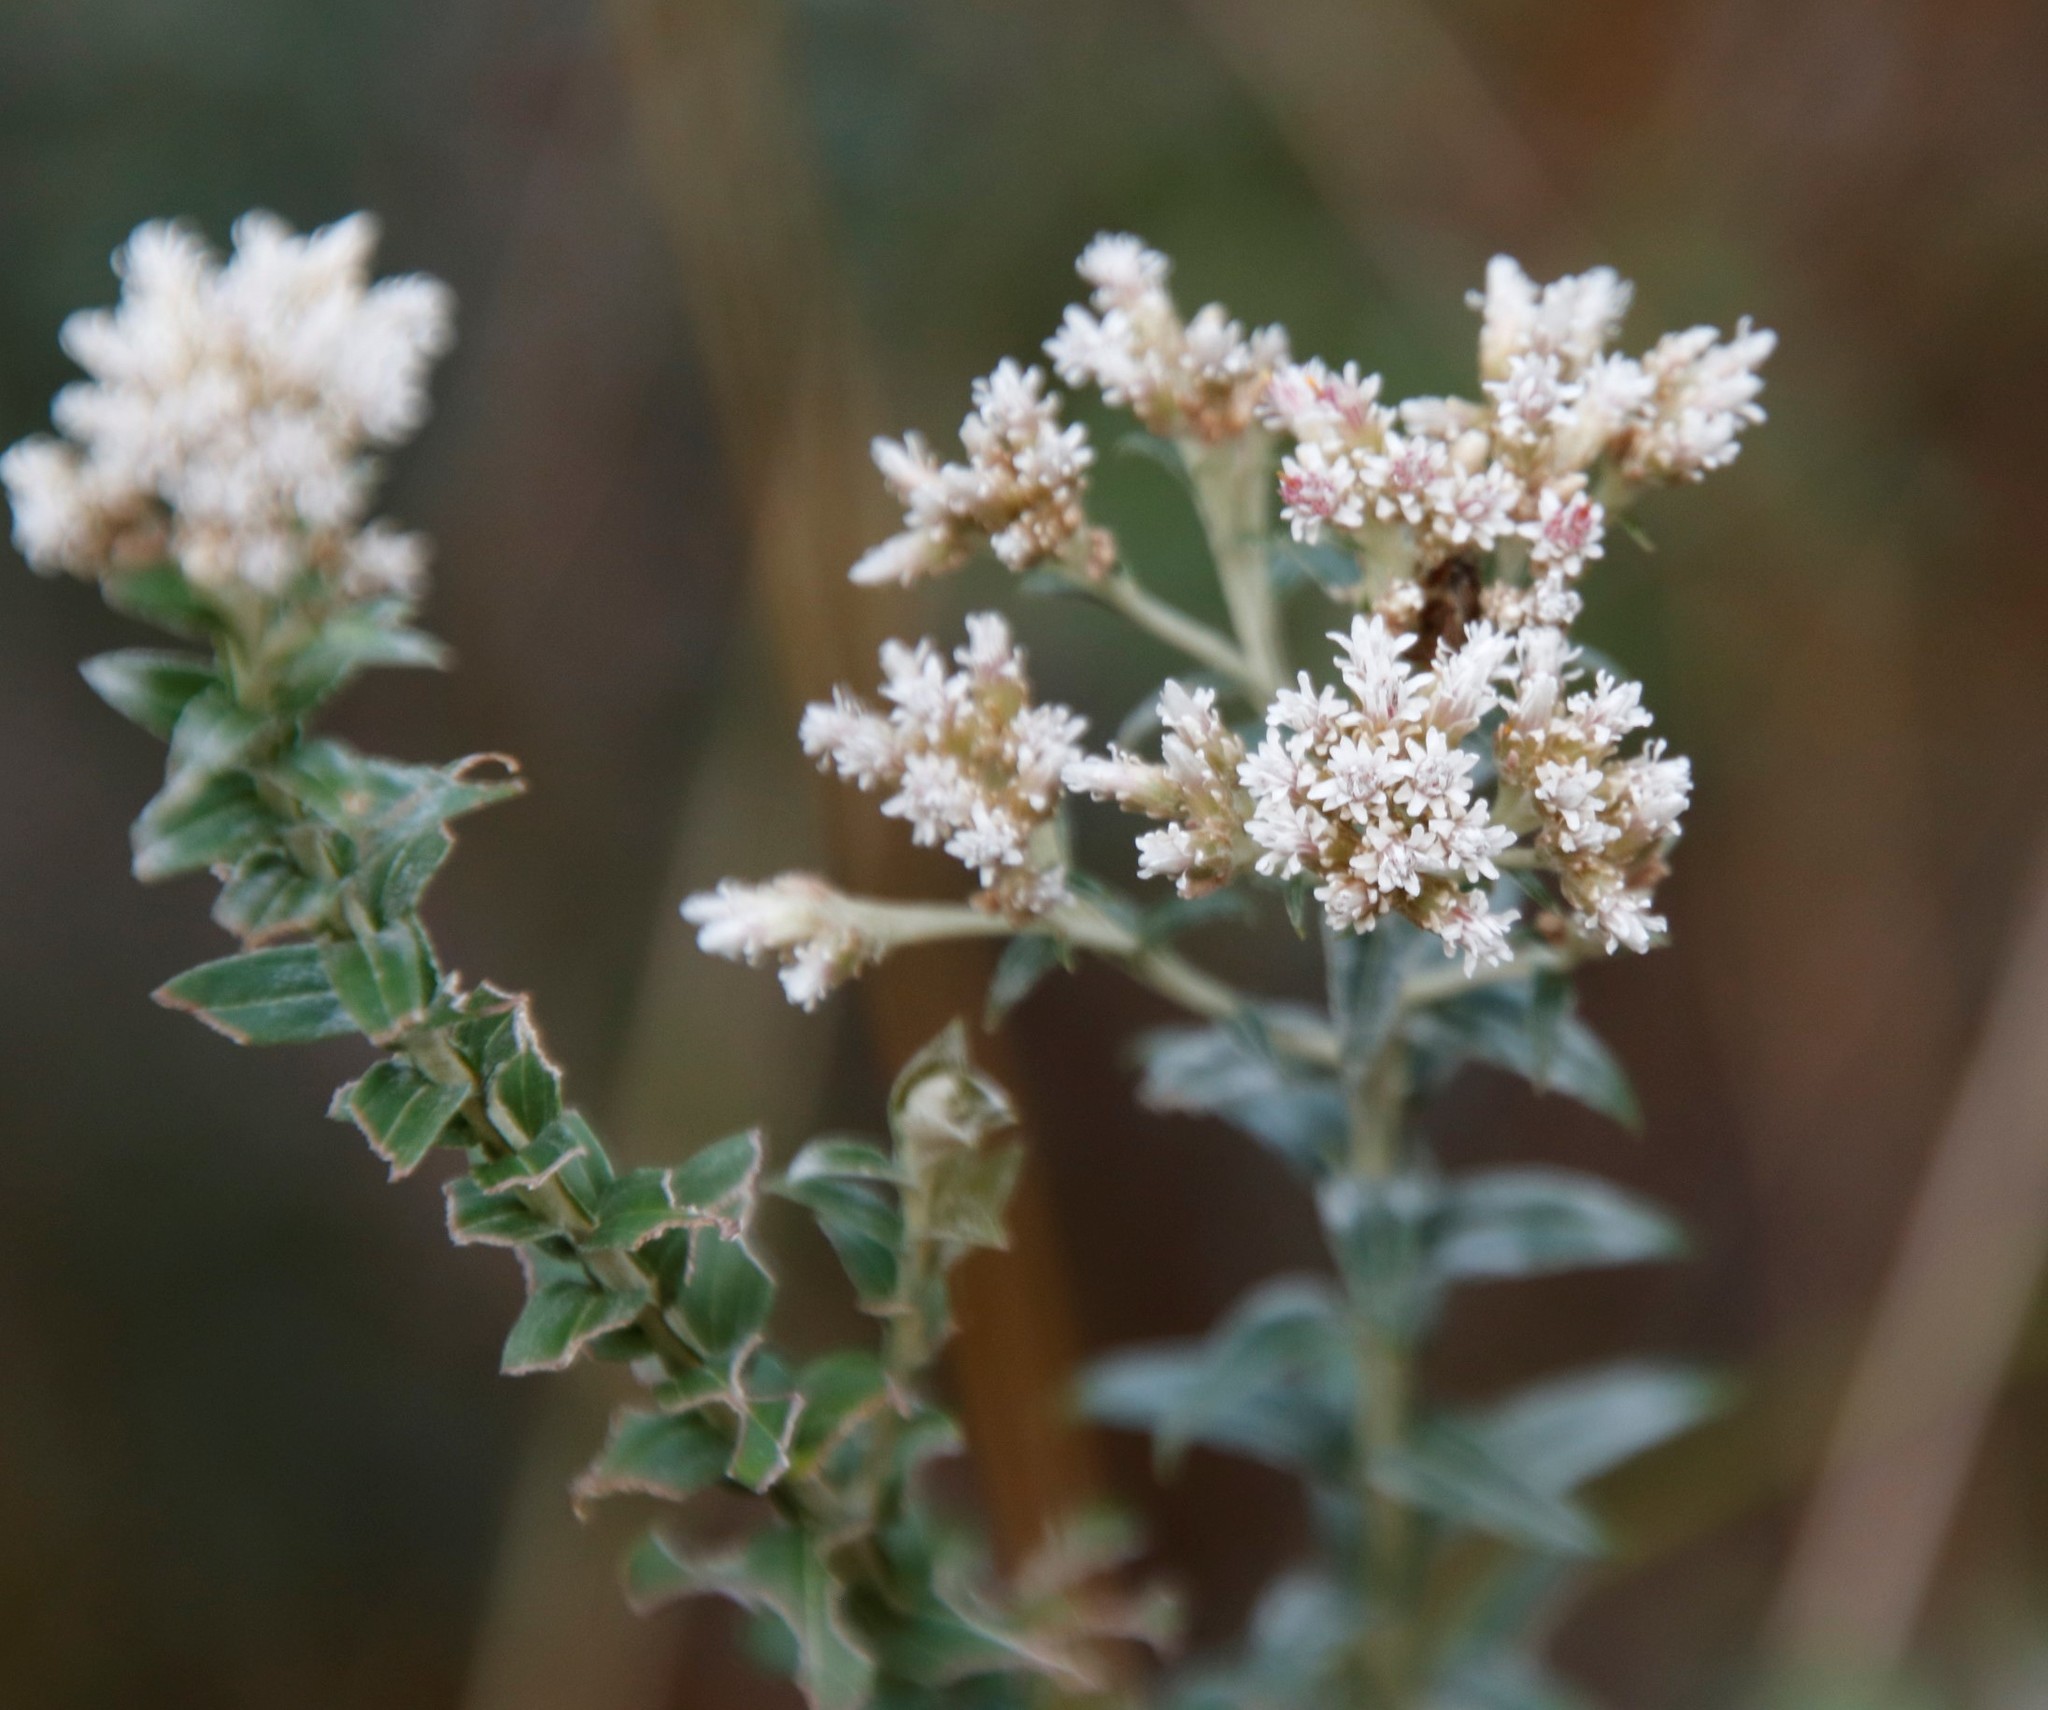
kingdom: Plantae
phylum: Tracheophyta
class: Magnoliopsida
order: Asterales
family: Asteraceae
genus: Tenrhynea
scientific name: Tenrhynea phylicifolia
